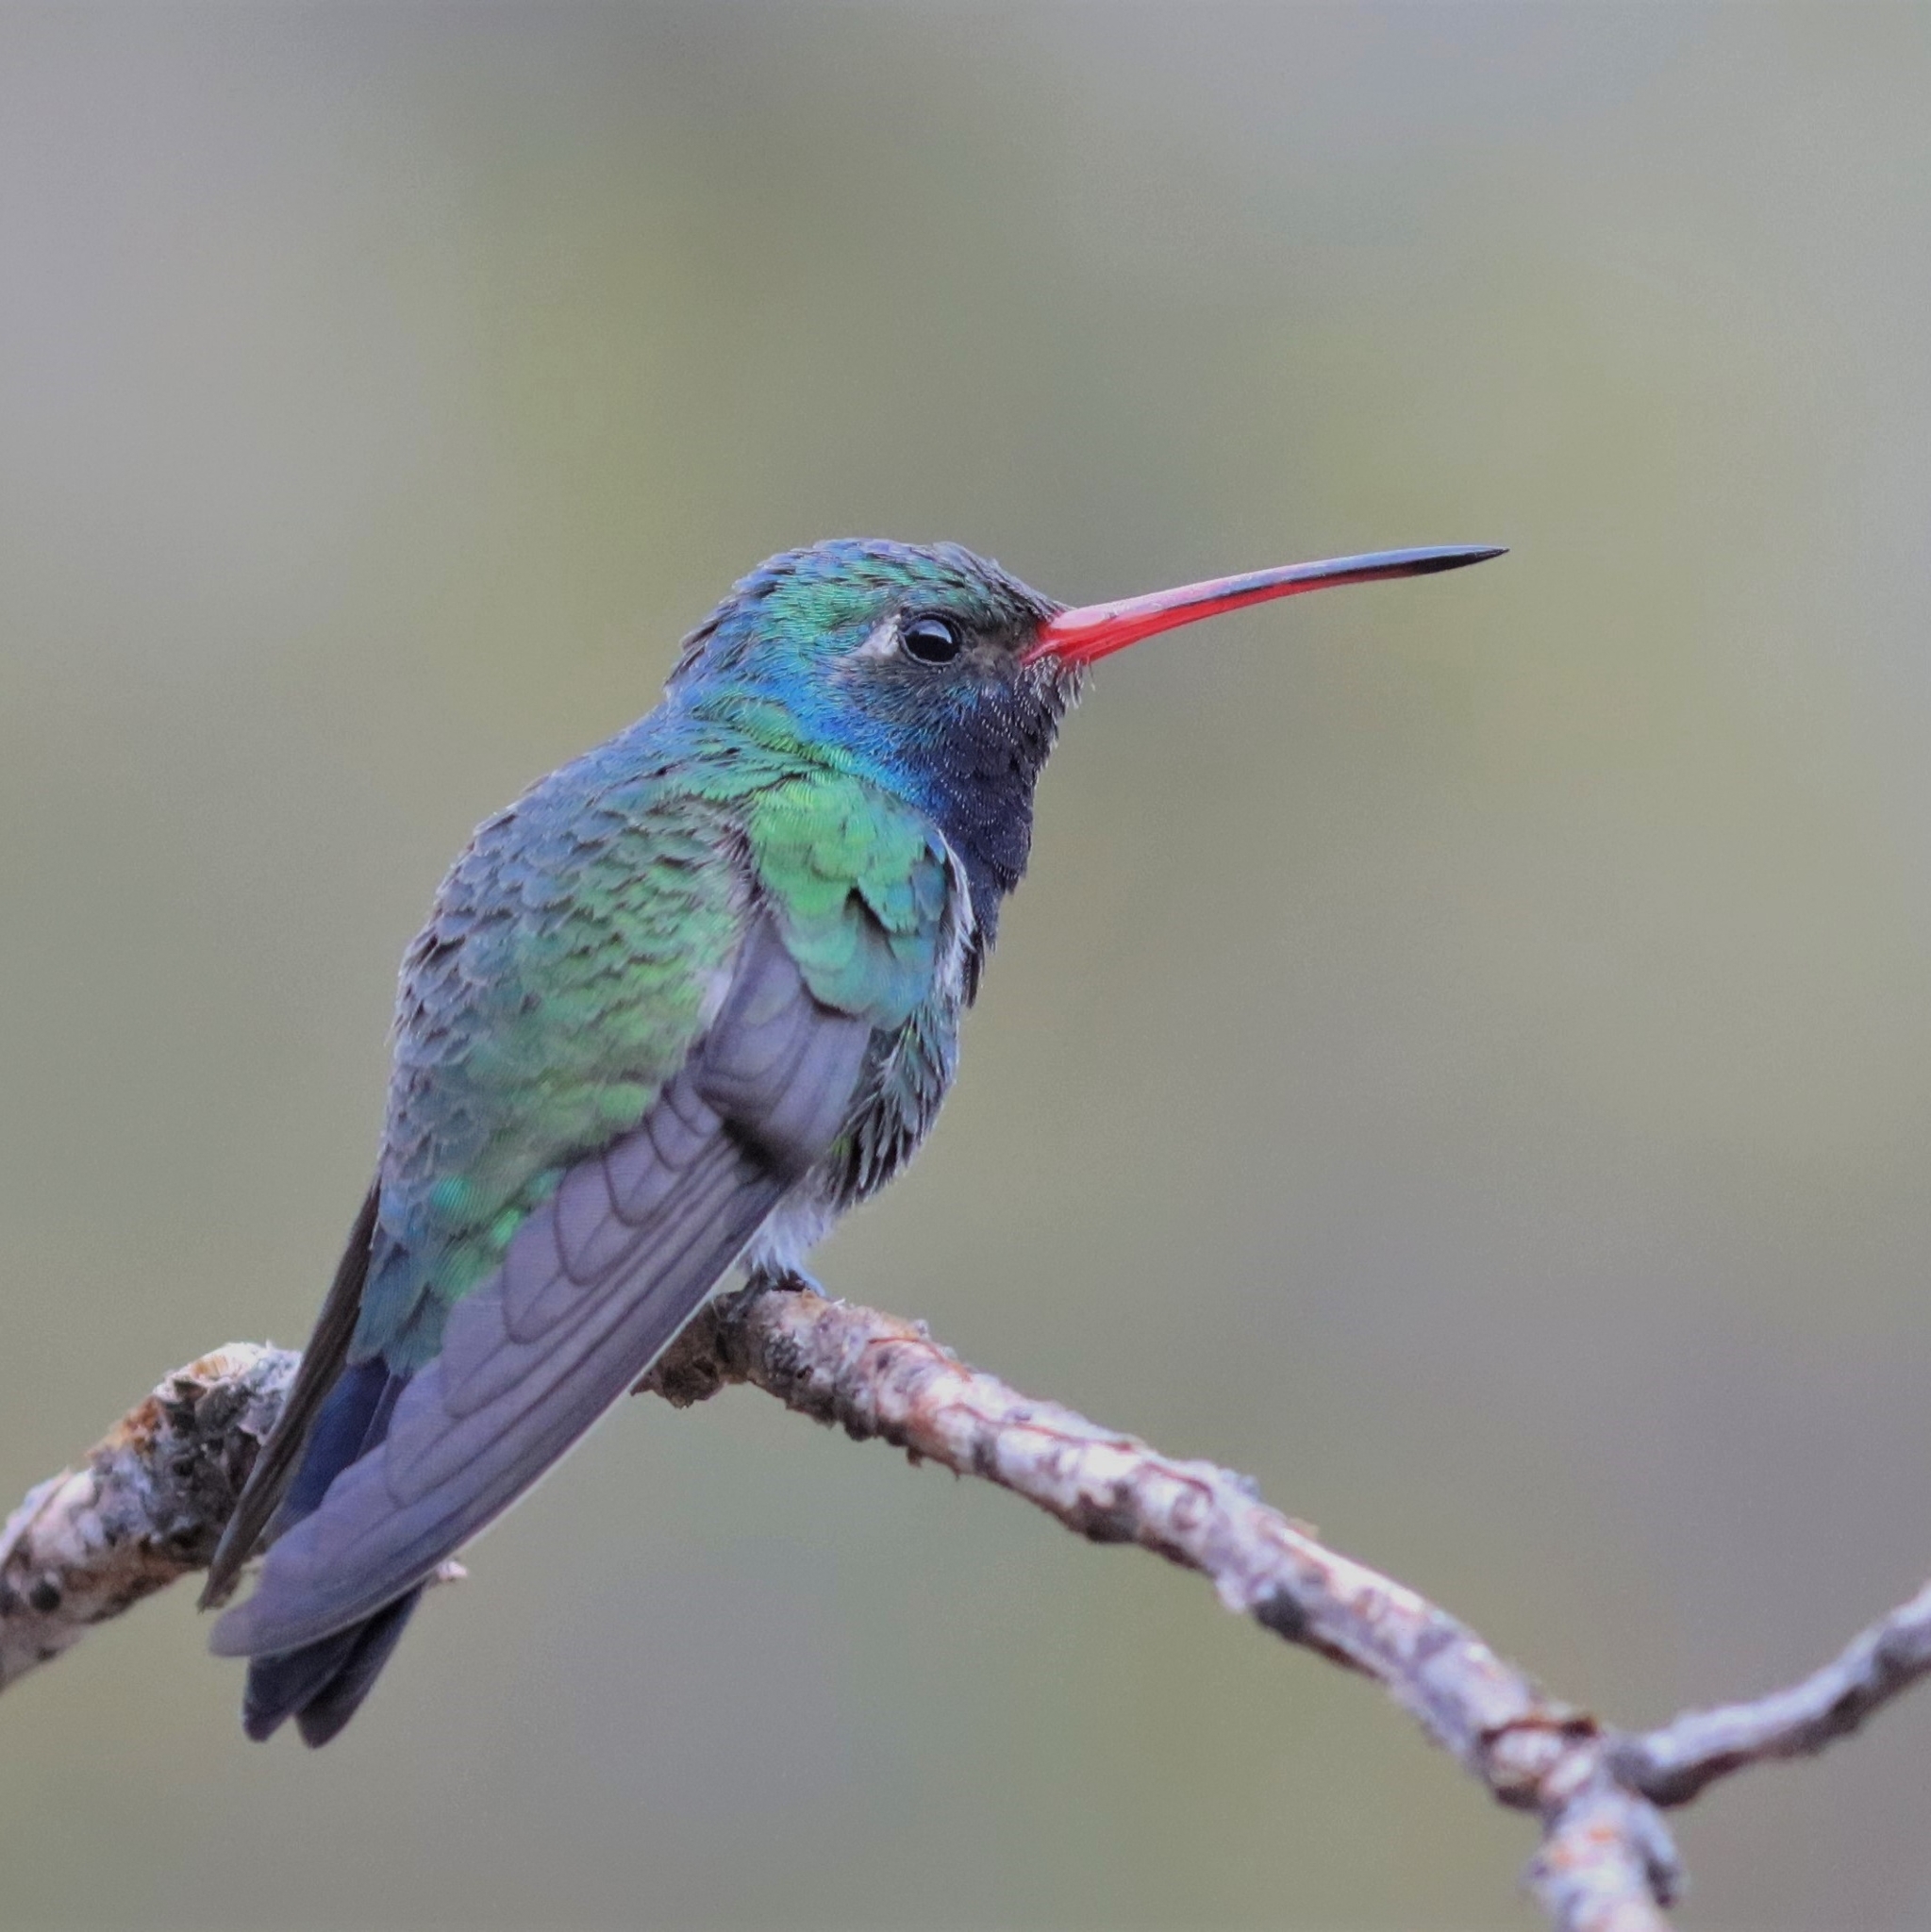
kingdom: Animalia
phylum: Chordata
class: Aves
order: Apodiformes
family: Trochilidae
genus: Cynanthus
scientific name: Cynanthus latirostris
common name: Broad-billed hummingbird
